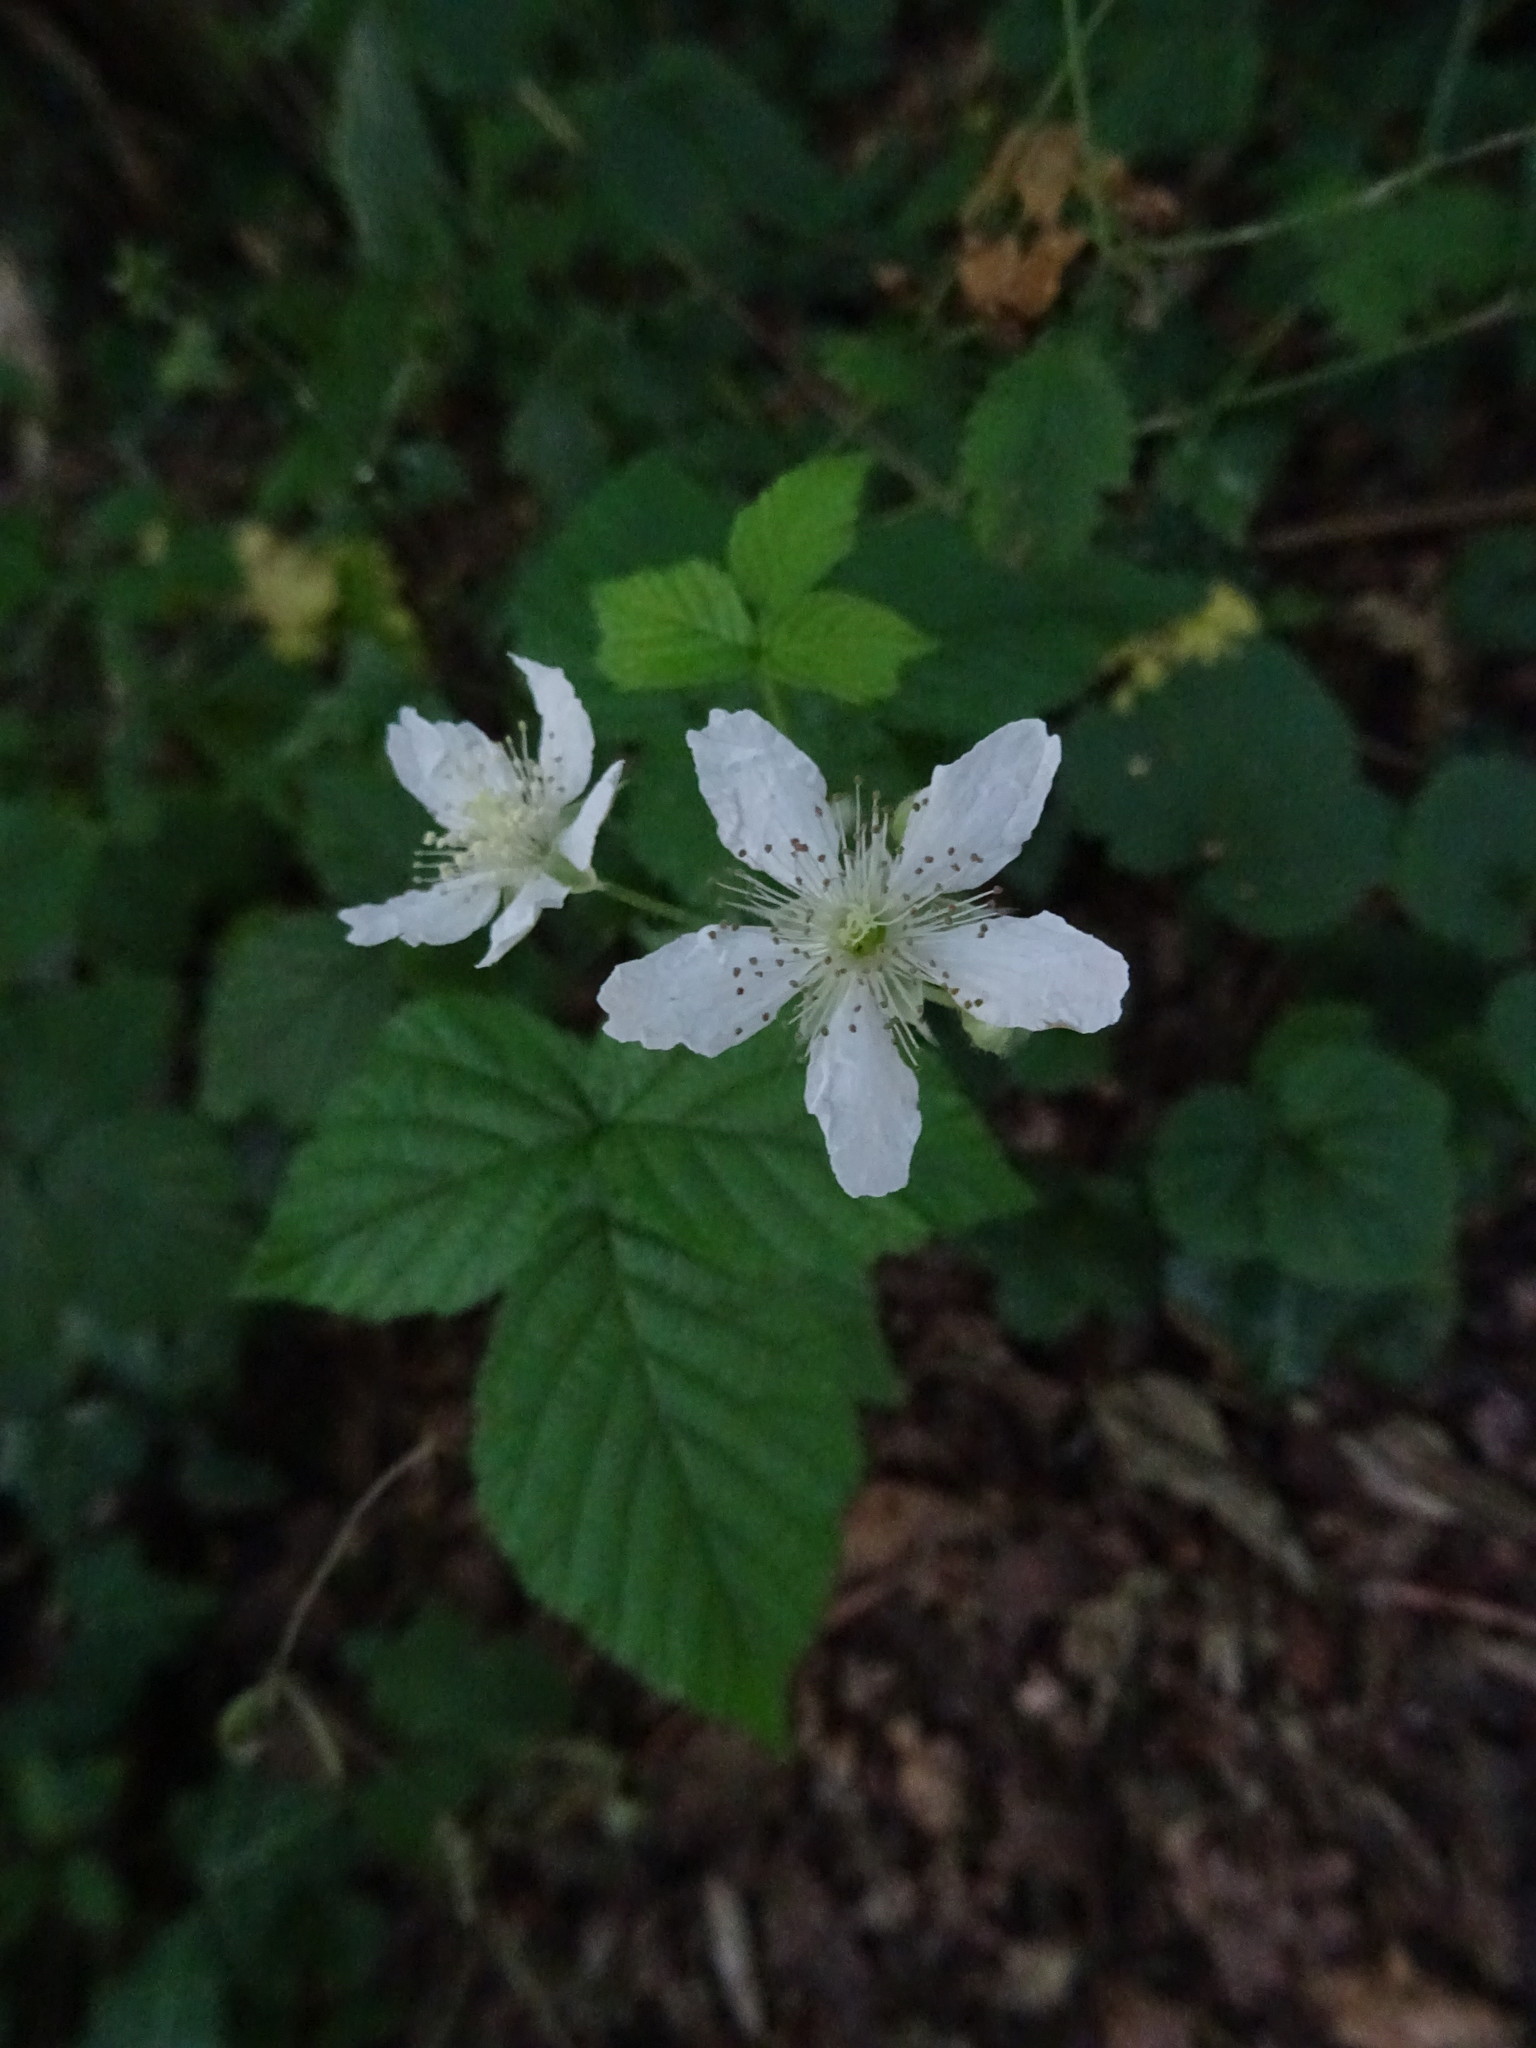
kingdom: Plantae
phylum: Tracheophyta
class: Magnoliopsida
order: Rosales
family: Rosaceae
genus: Rubus
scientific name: Rubus caesius
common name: Dewberry
